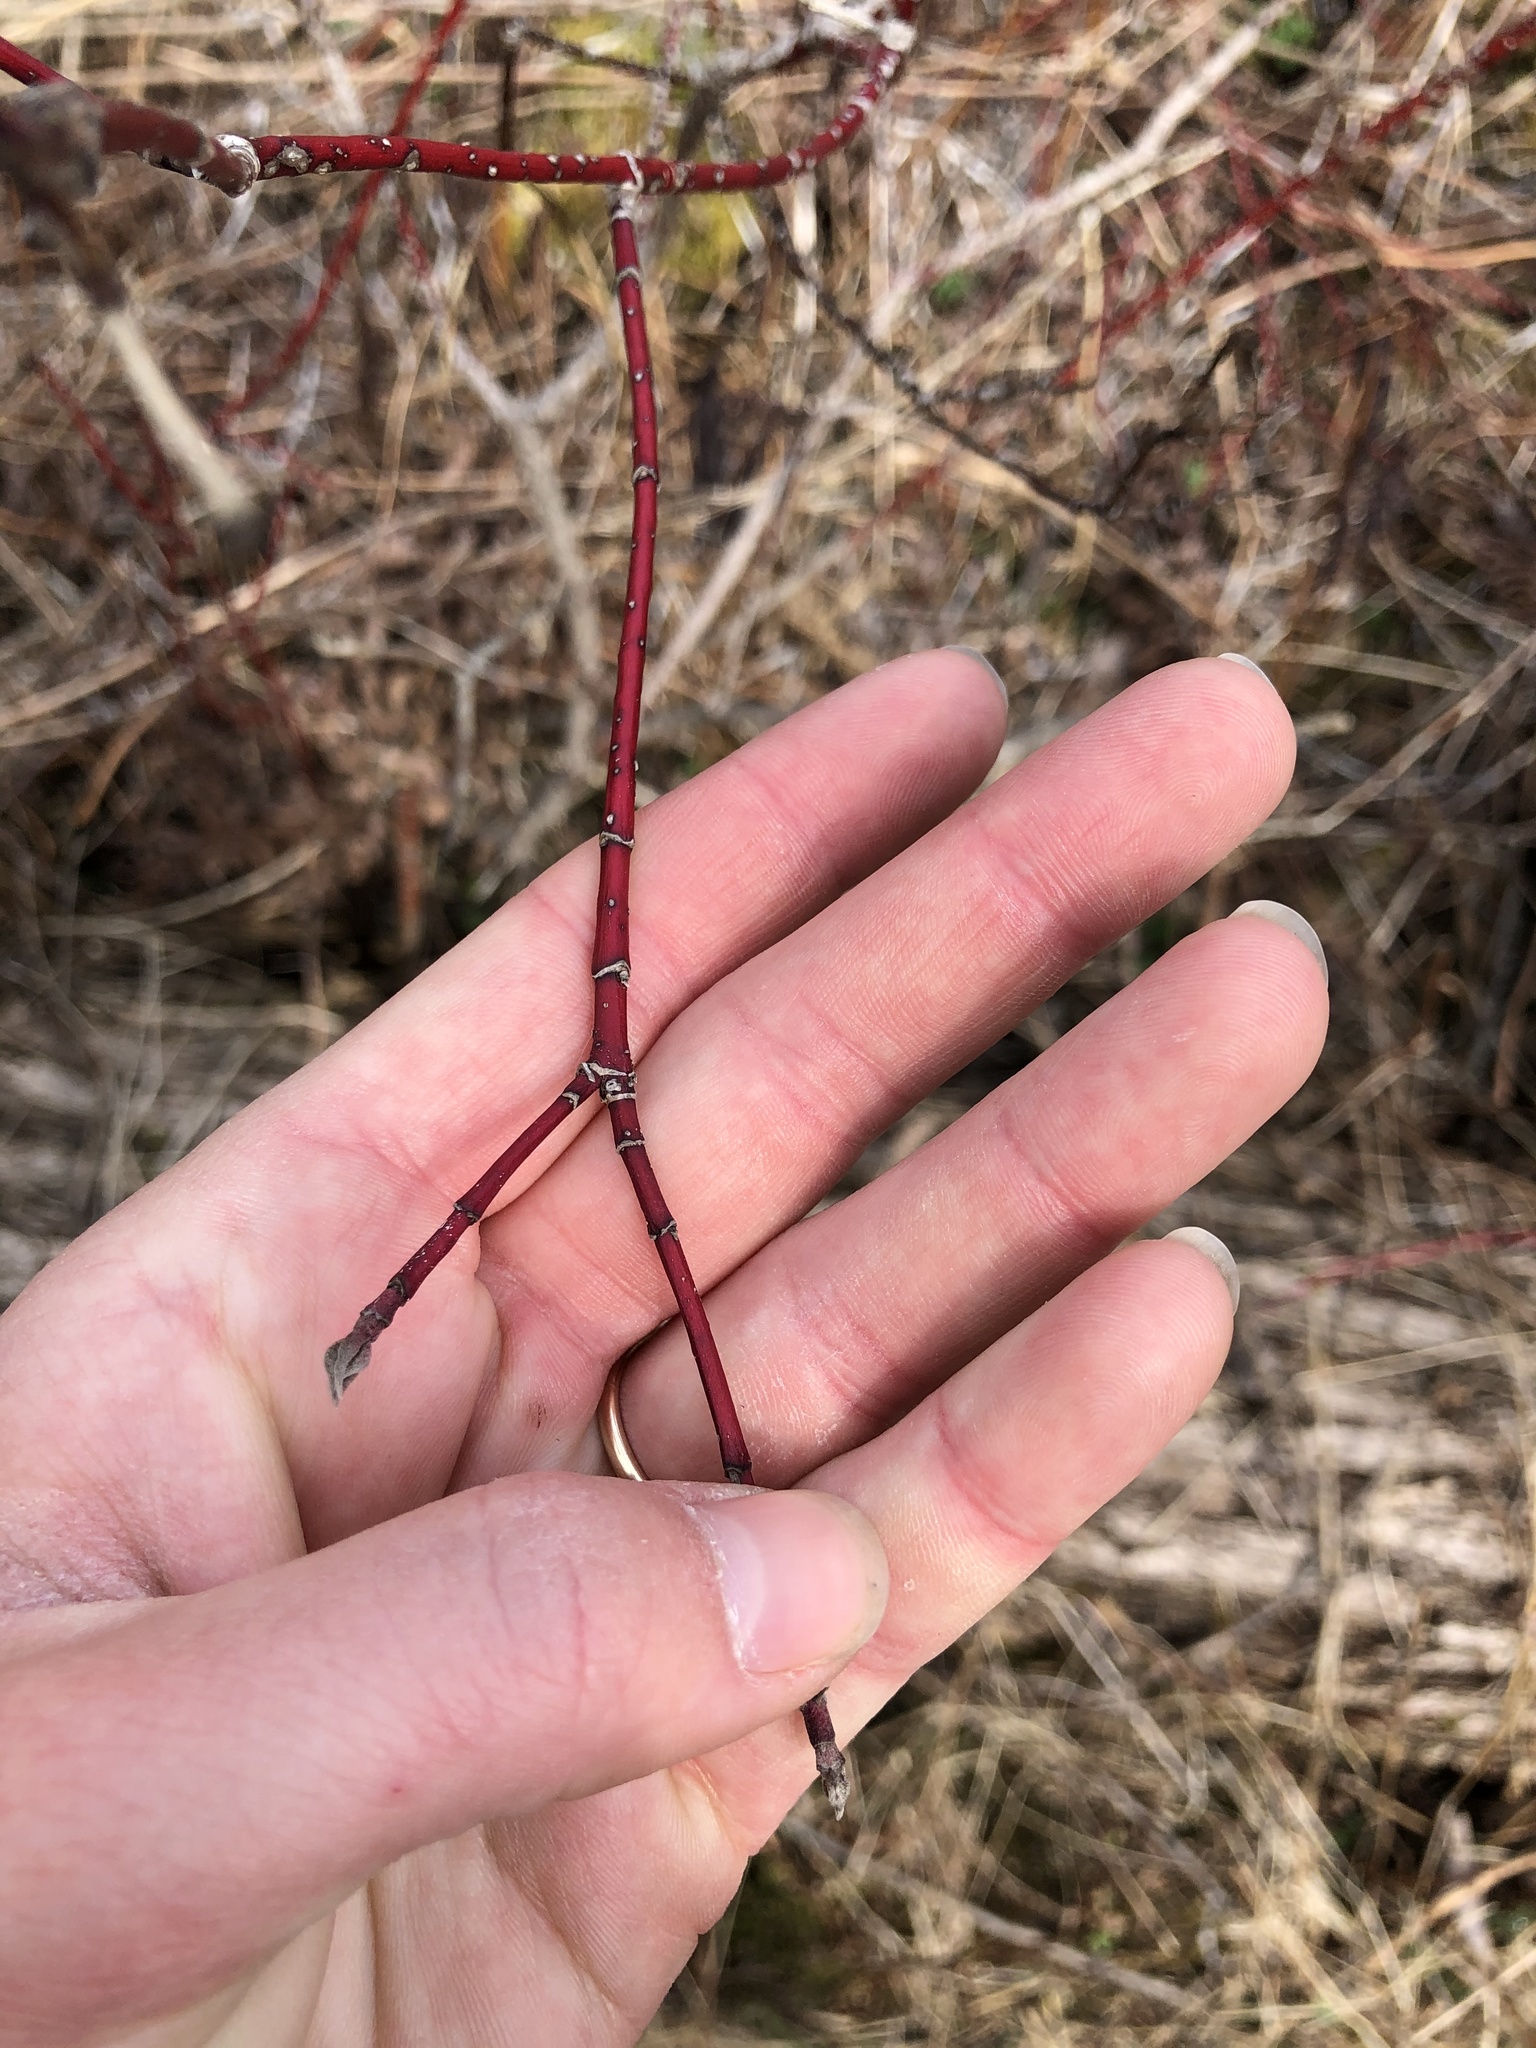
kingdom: Plantae
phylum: Tracheophyta
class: Magnoliopsida
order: Cornales
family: Cornaceae
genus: Cornus
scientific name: Cornus sericea
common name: Red-osier dogwood
